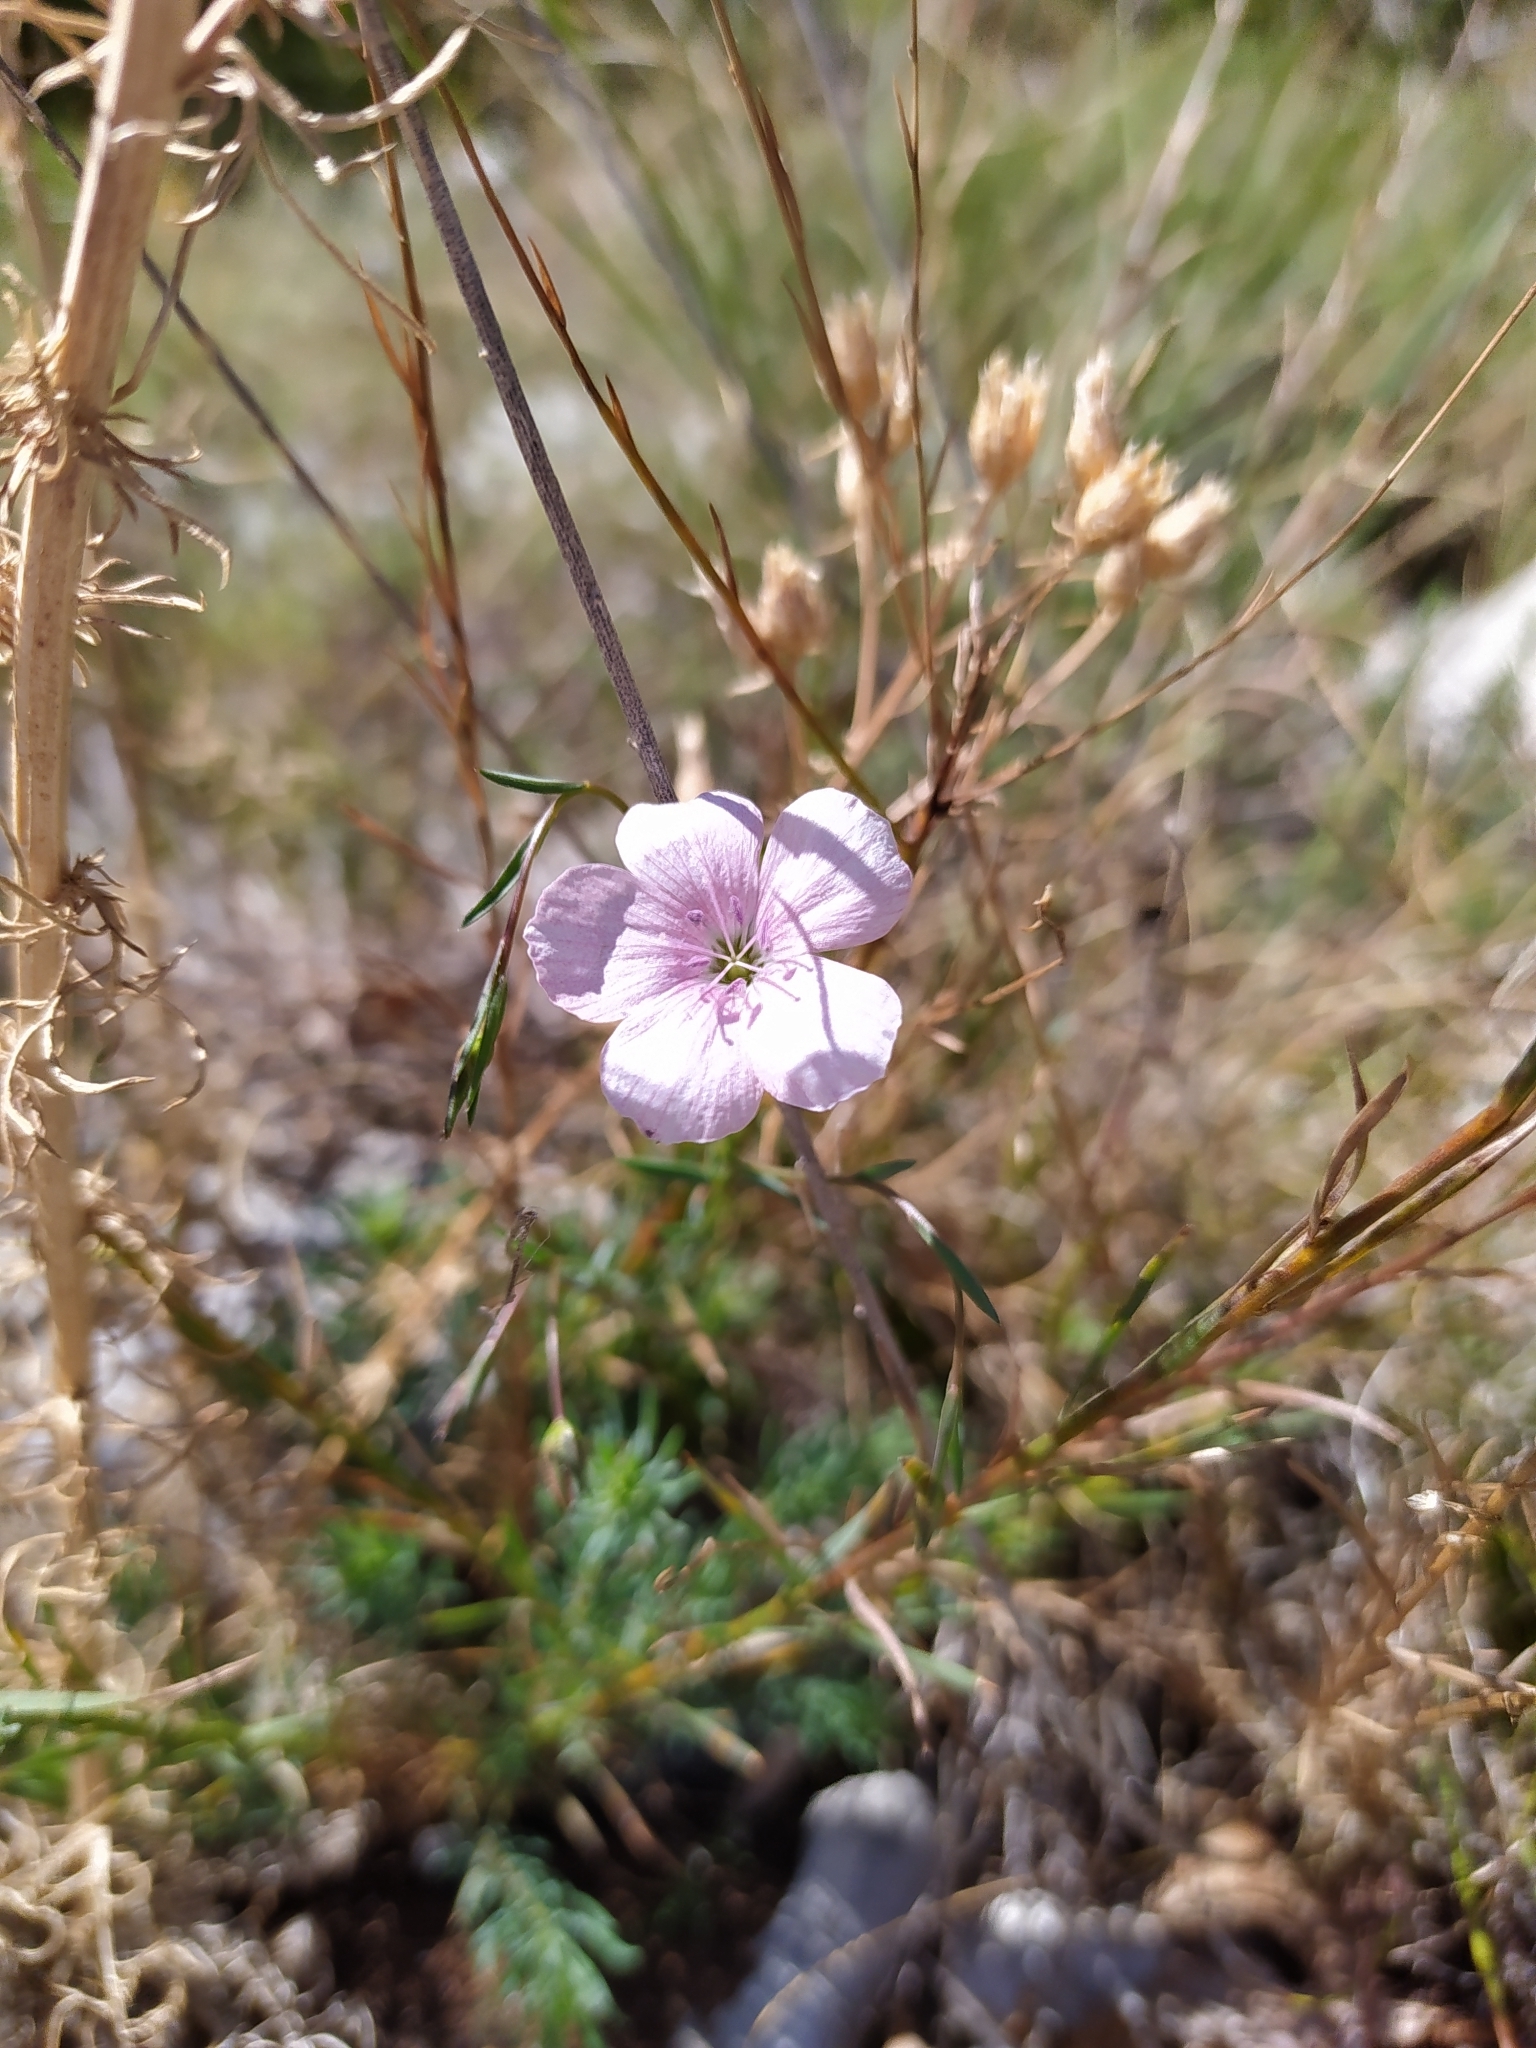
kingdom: Plantae
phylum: Tracheophyta
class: Magnoliopsida
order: Malpighiales
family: Linaceae
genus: Linum
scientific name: Linum tenuifolium
